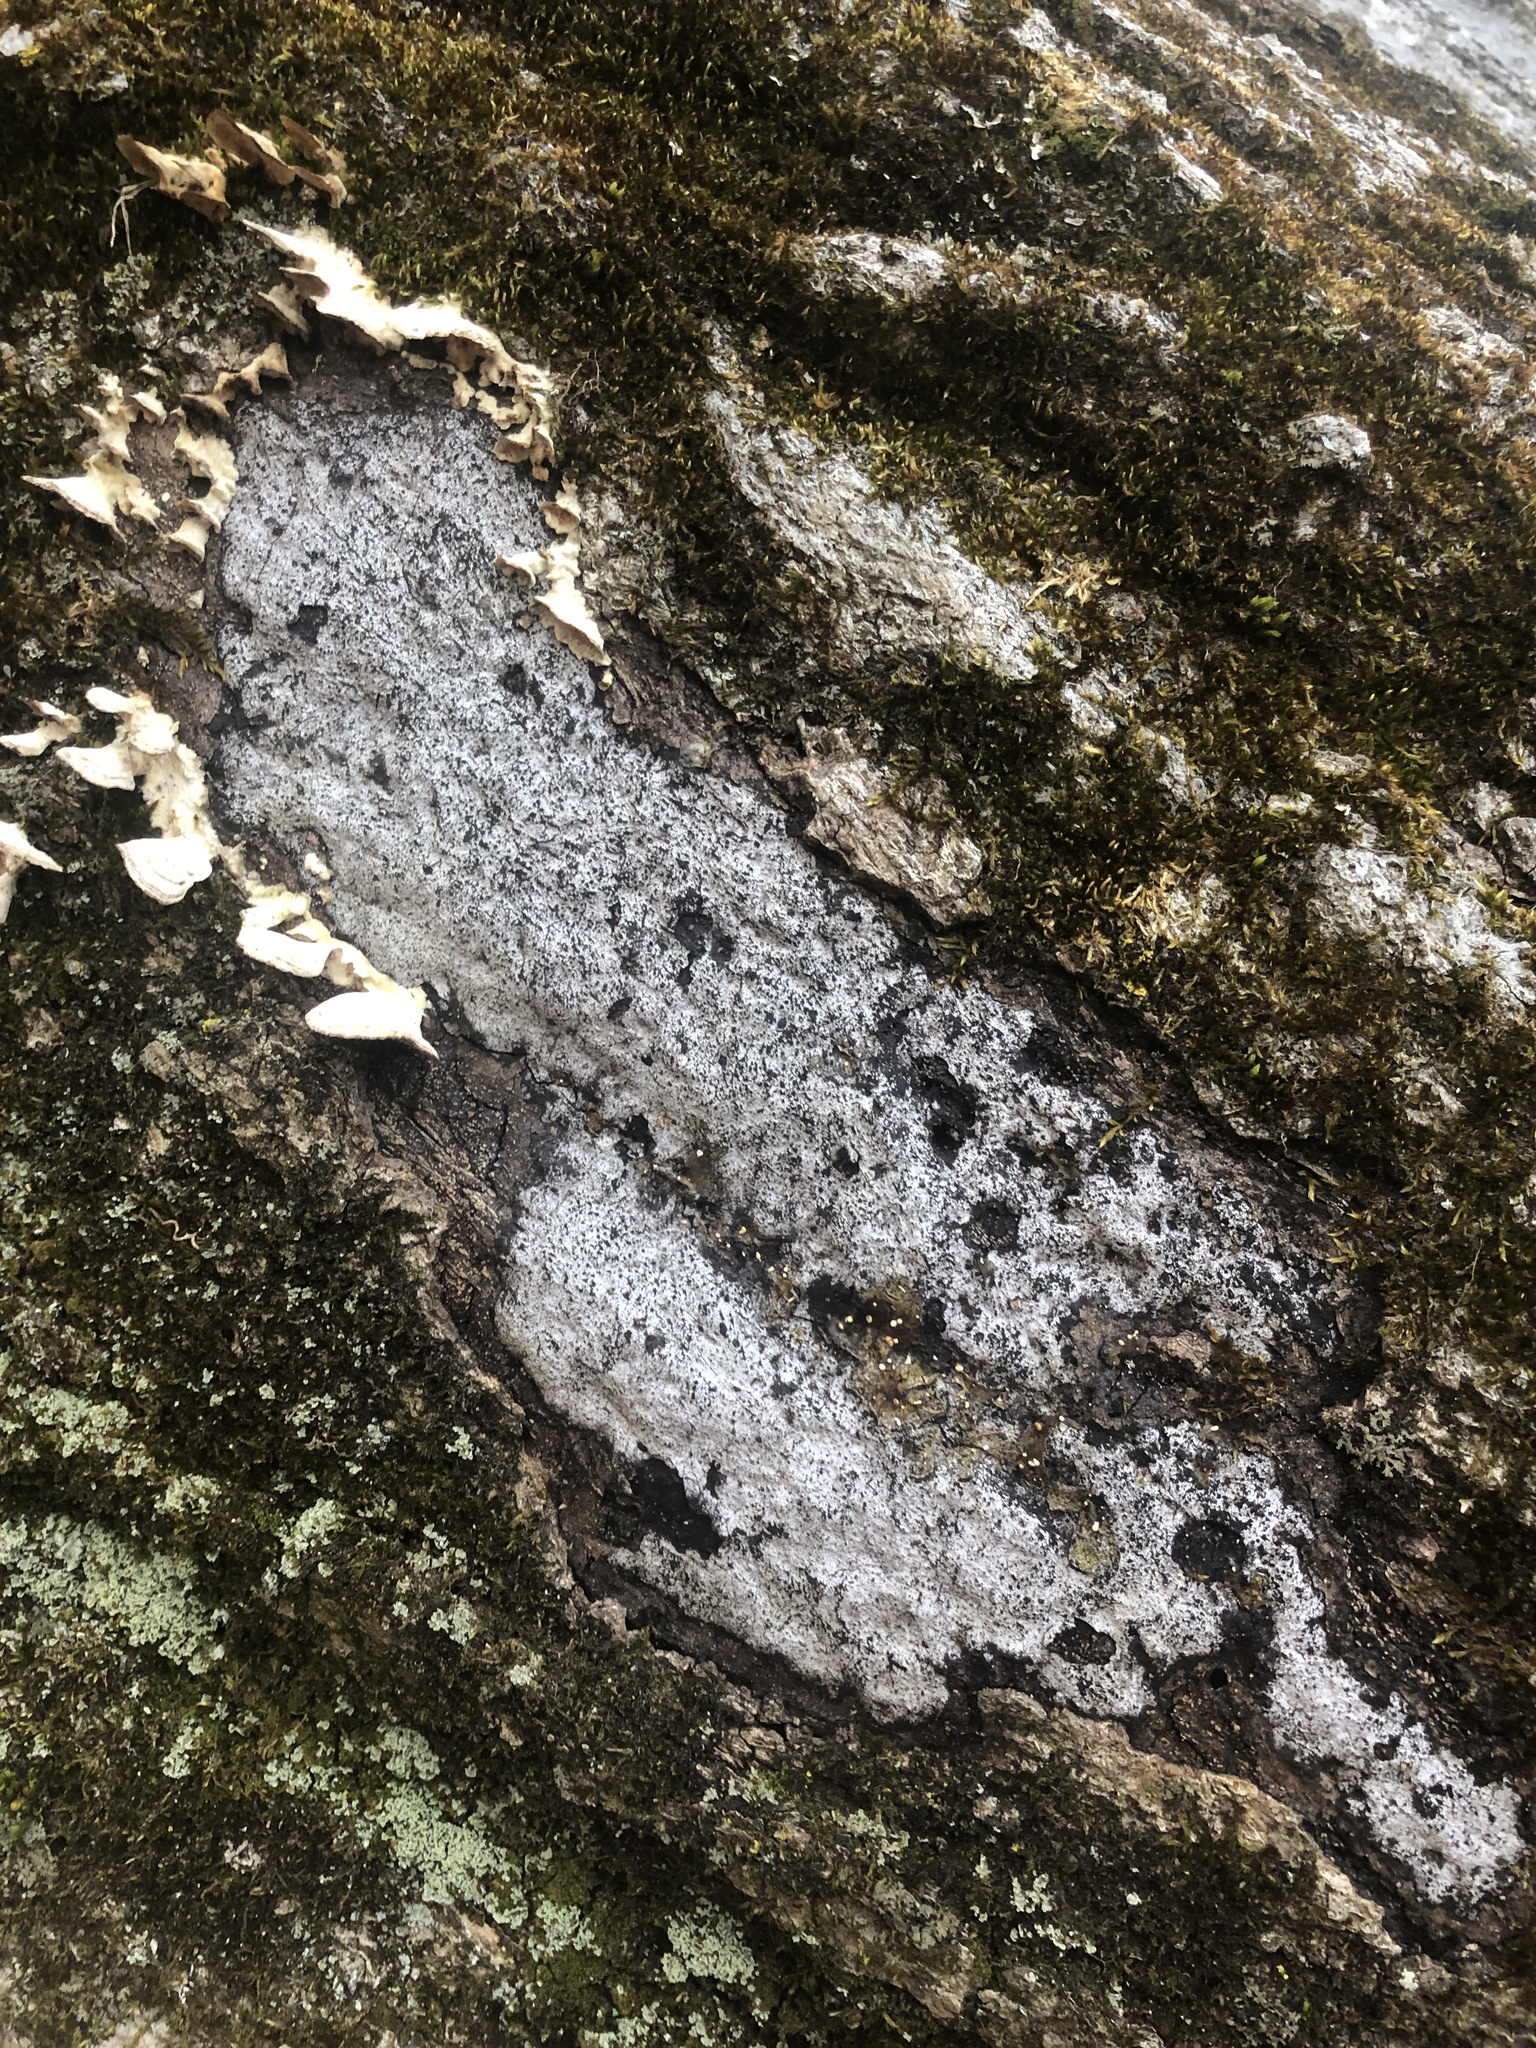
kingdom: Fungi
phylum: Ascomycota
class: Sordariomycetes
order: Xylariales
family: Graphostromataceae
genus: Biscogniauxia
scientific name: Biscogniauxia atropunctata
